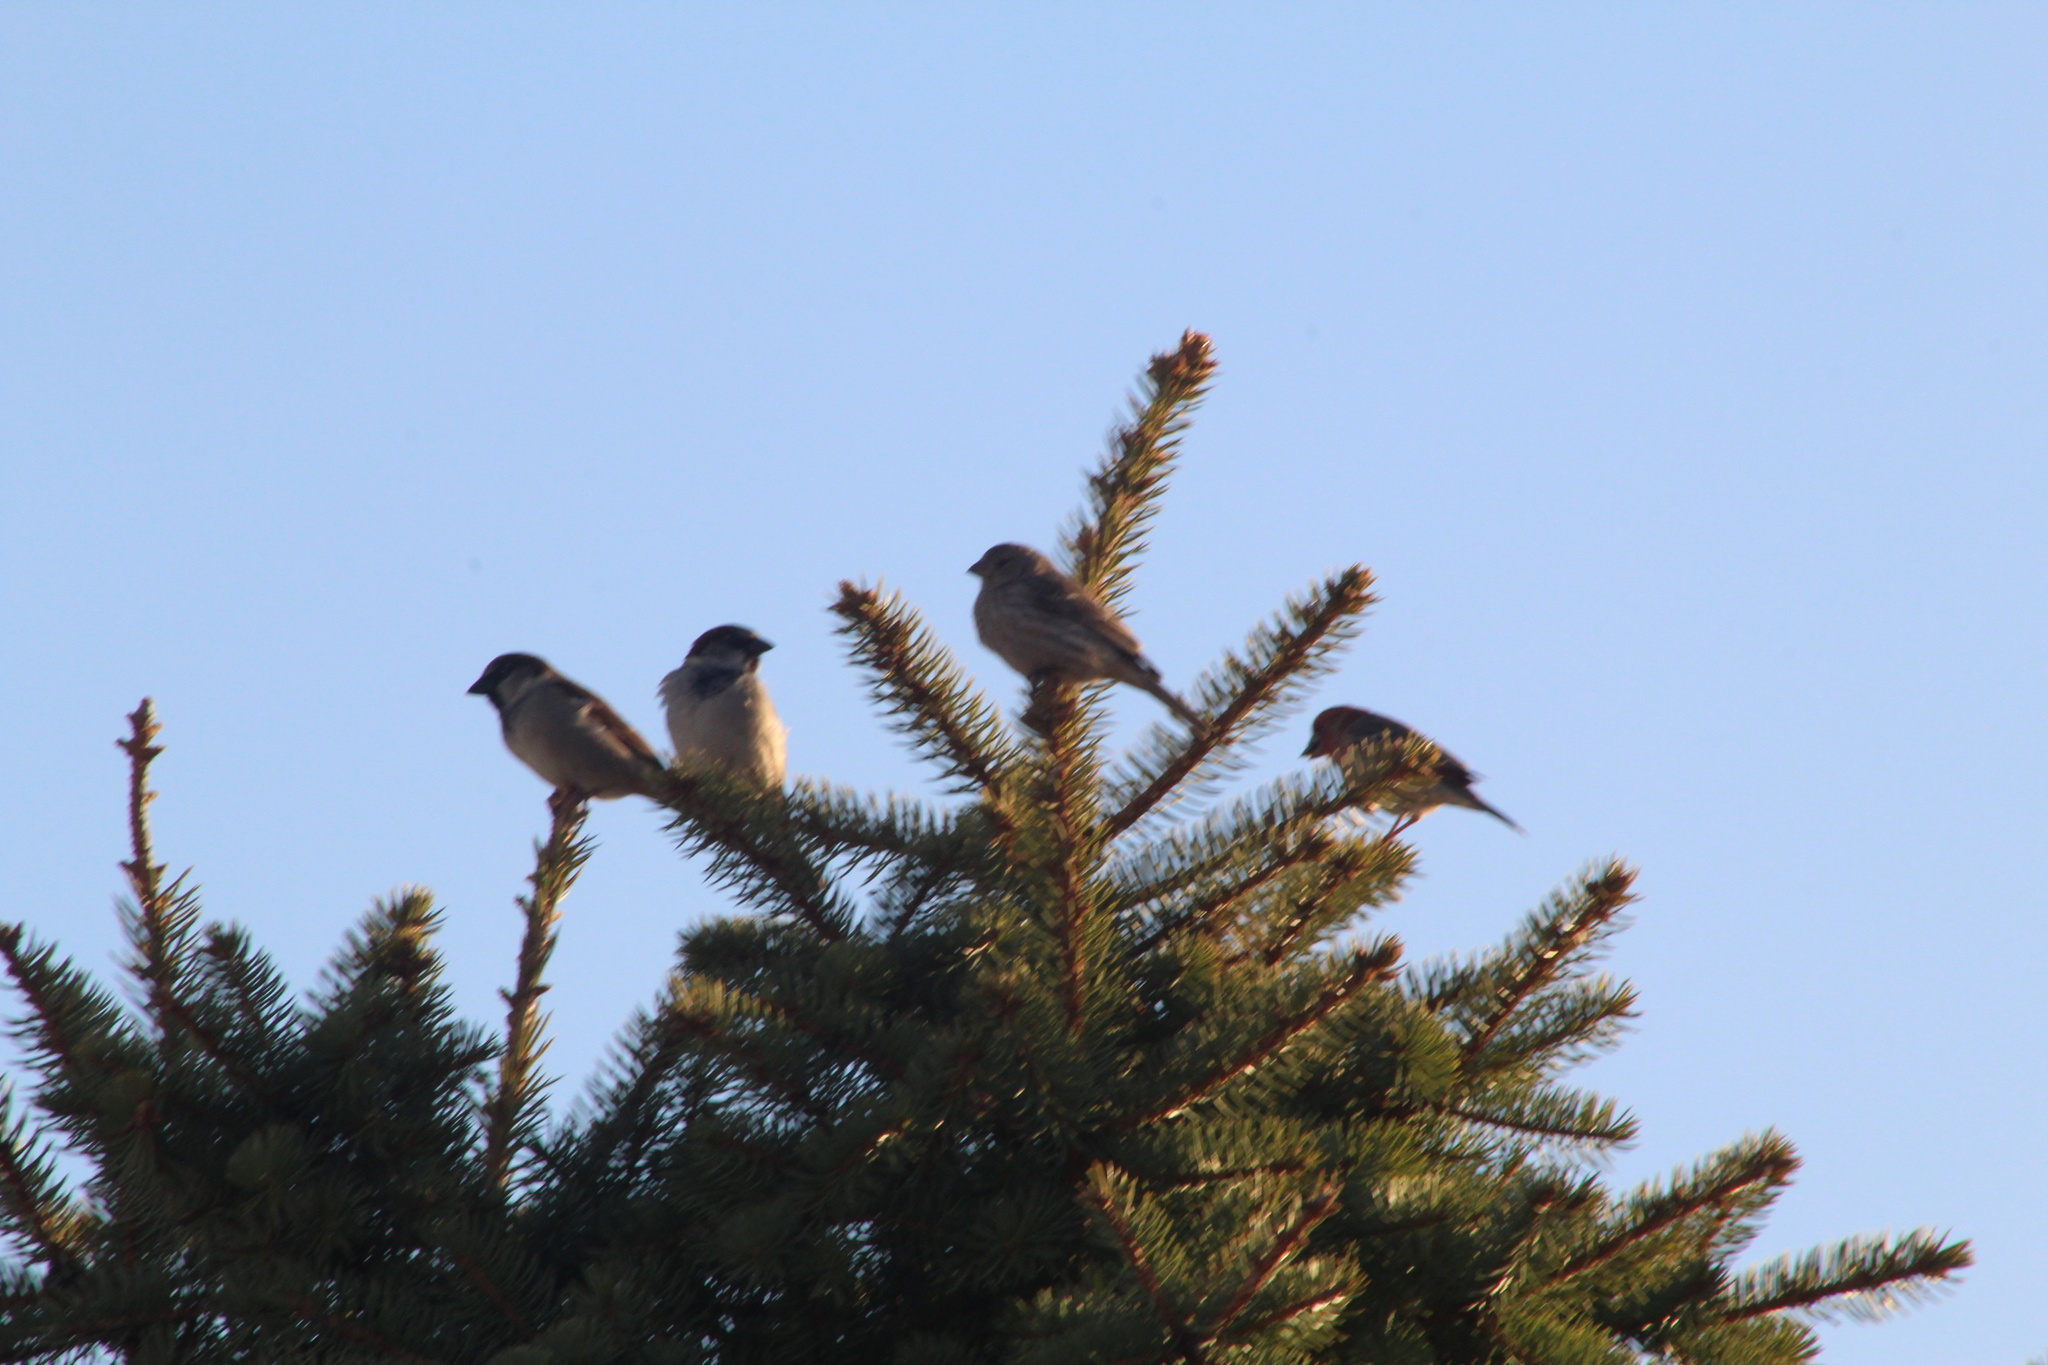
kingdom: Animalia
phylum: Chordata
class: Aves
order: Passeriformes
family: Passeridae
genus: Passer
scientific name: Passer domesticus
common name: House sparrow
